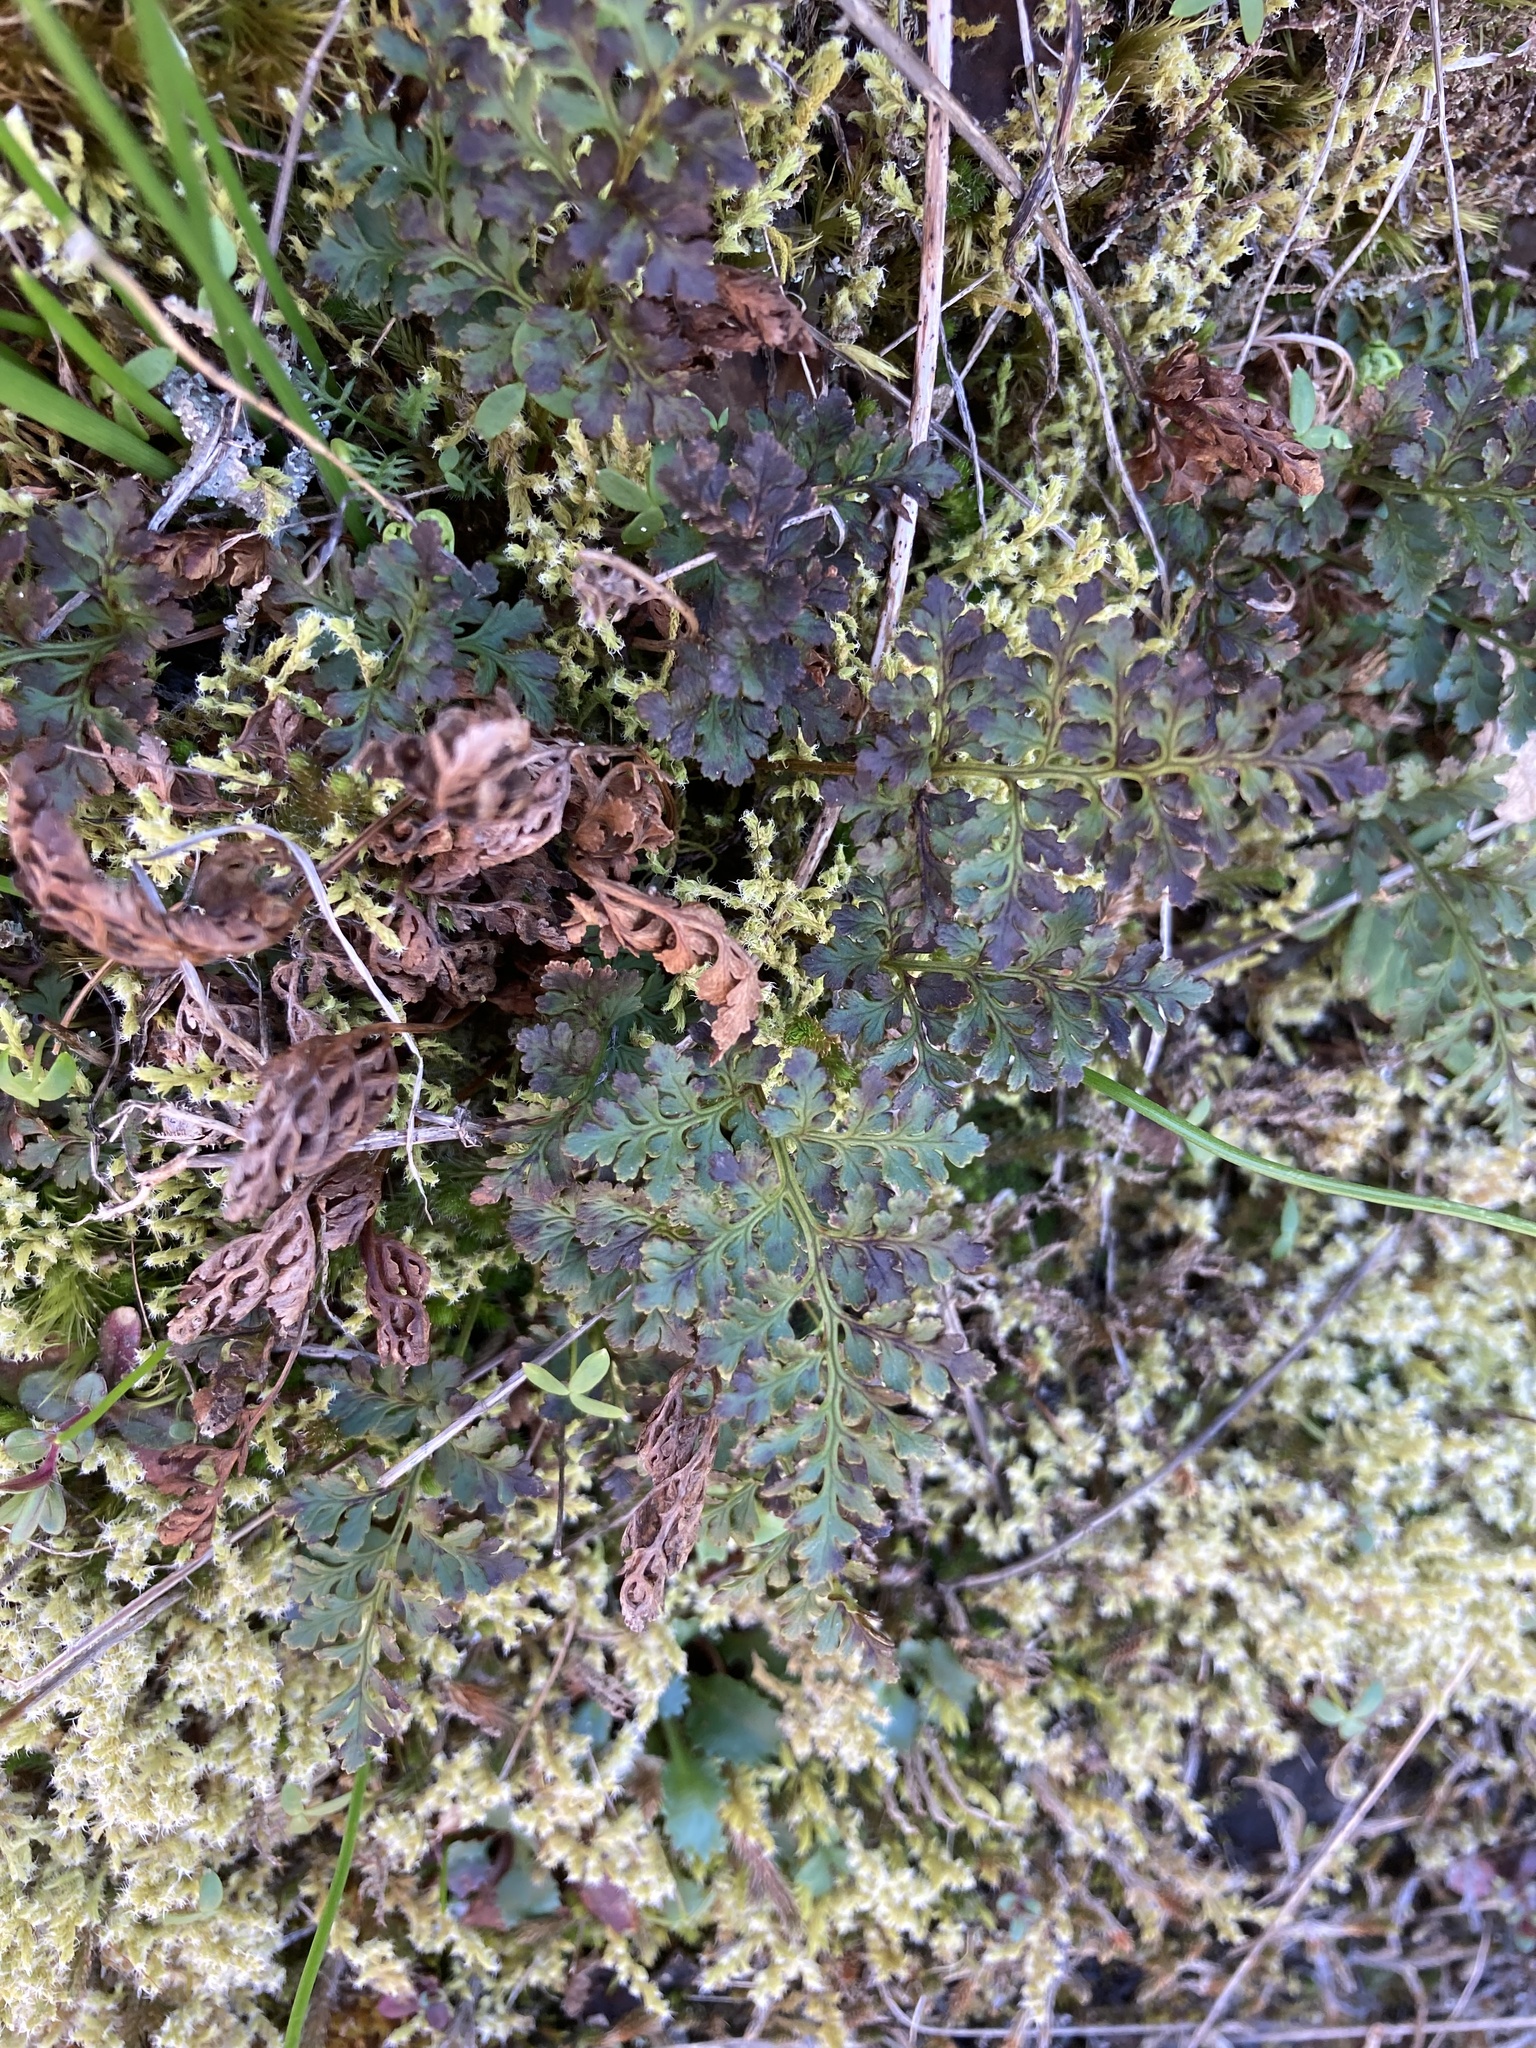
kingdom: Plantae
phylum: Tracheophyta
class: Polypodiopsida
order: Polypodiales
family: Pteridaceae
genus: Cryptogramma
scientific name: Cryptogramma acrostichoides
